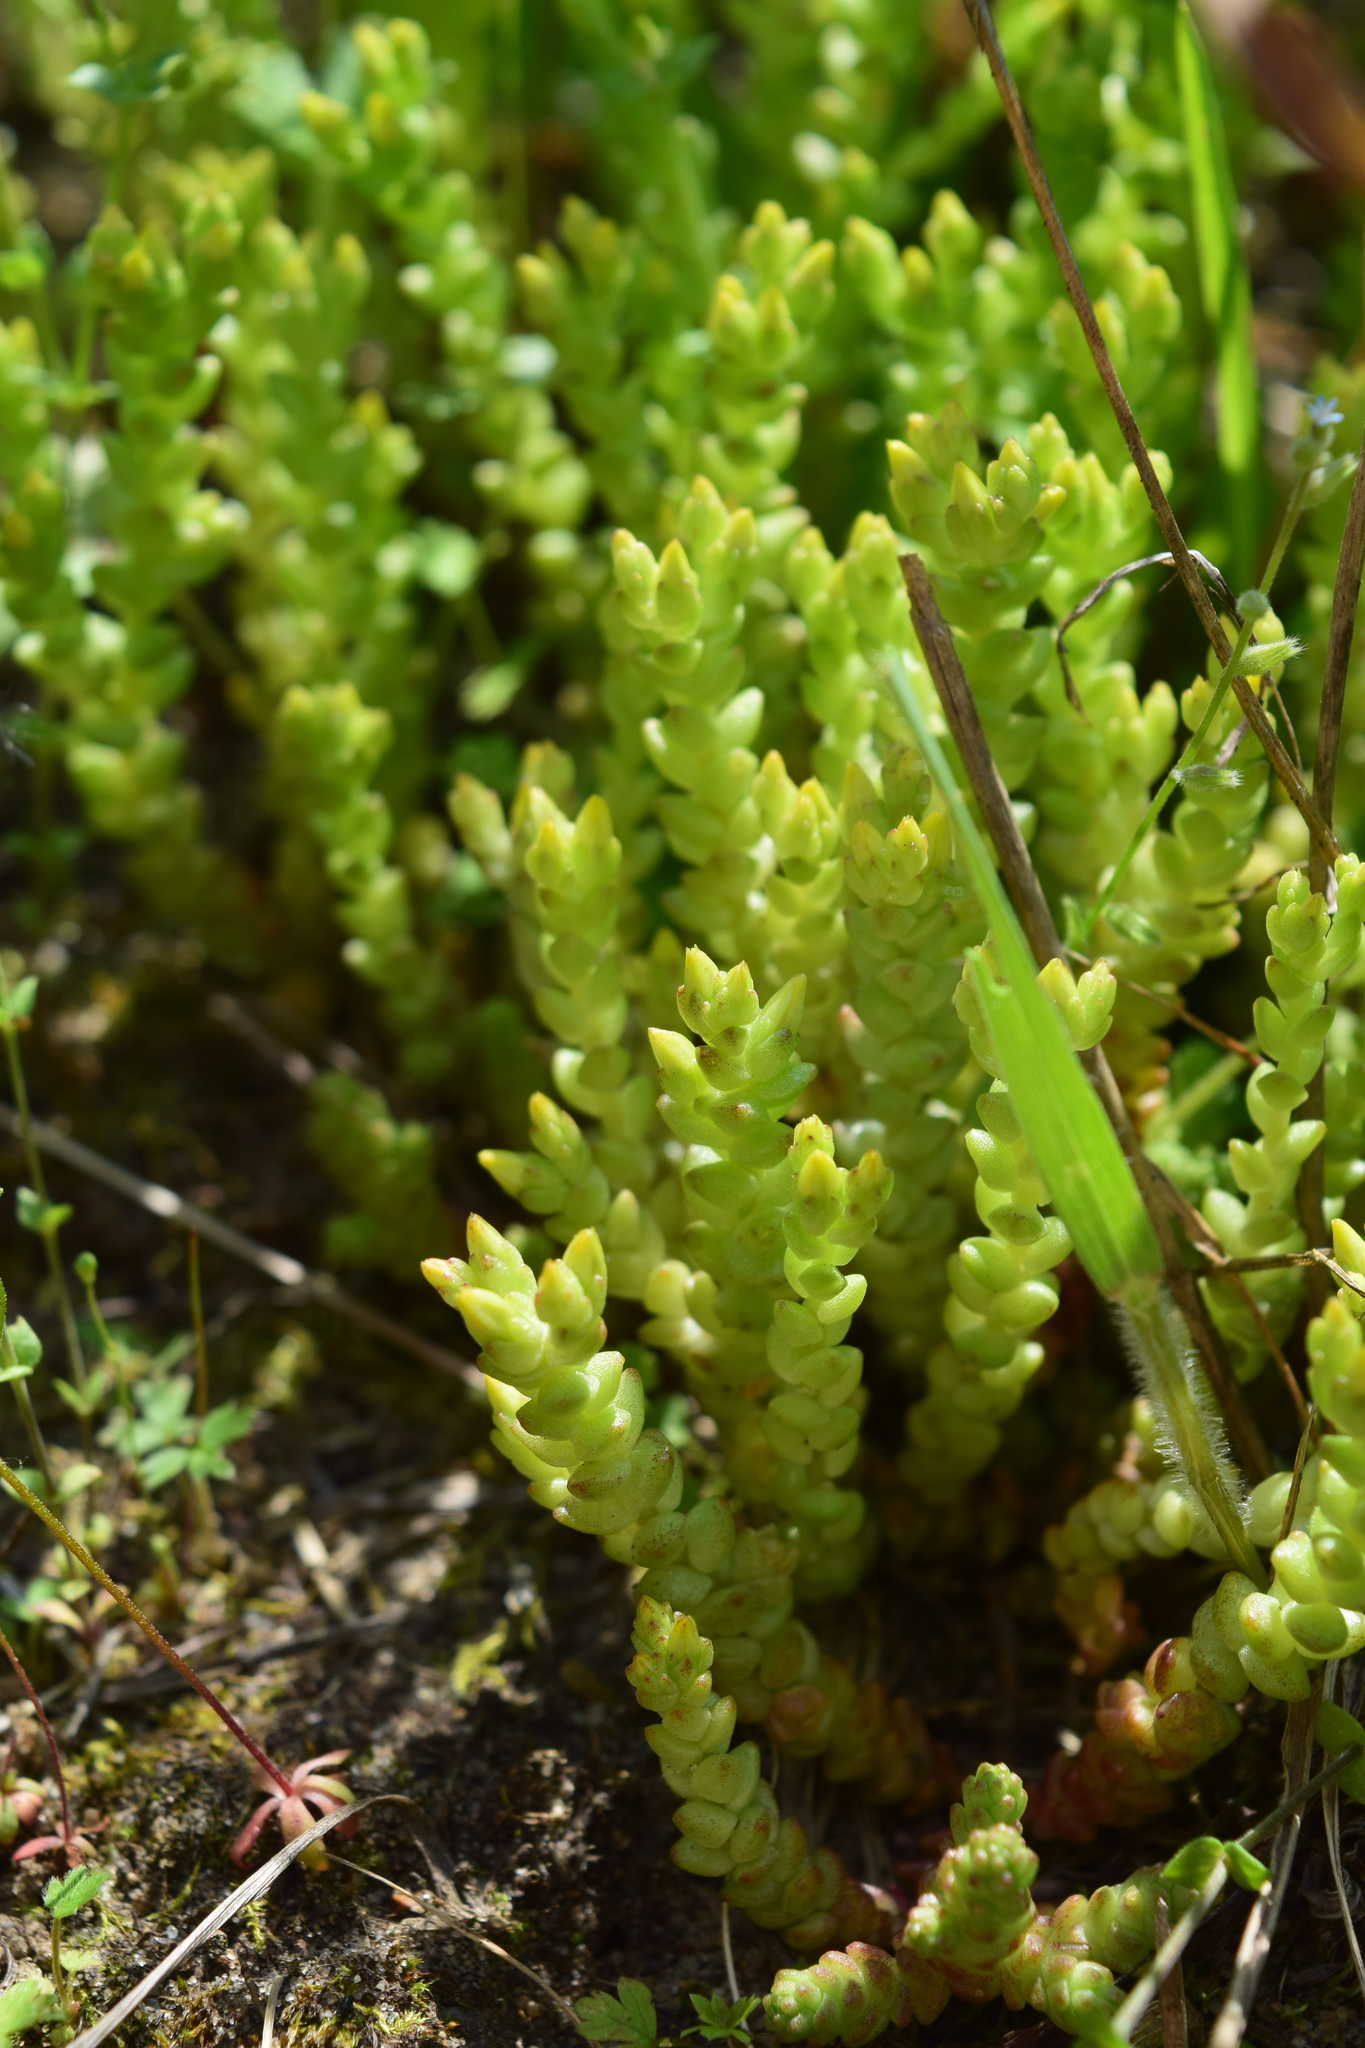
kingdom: Plantae
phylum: Tracheophyta
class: Magnoliopsida
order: Saxifragales
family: Crassulaceae
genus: Sedum
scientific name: Sedum acre
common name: Biting stonecrop
